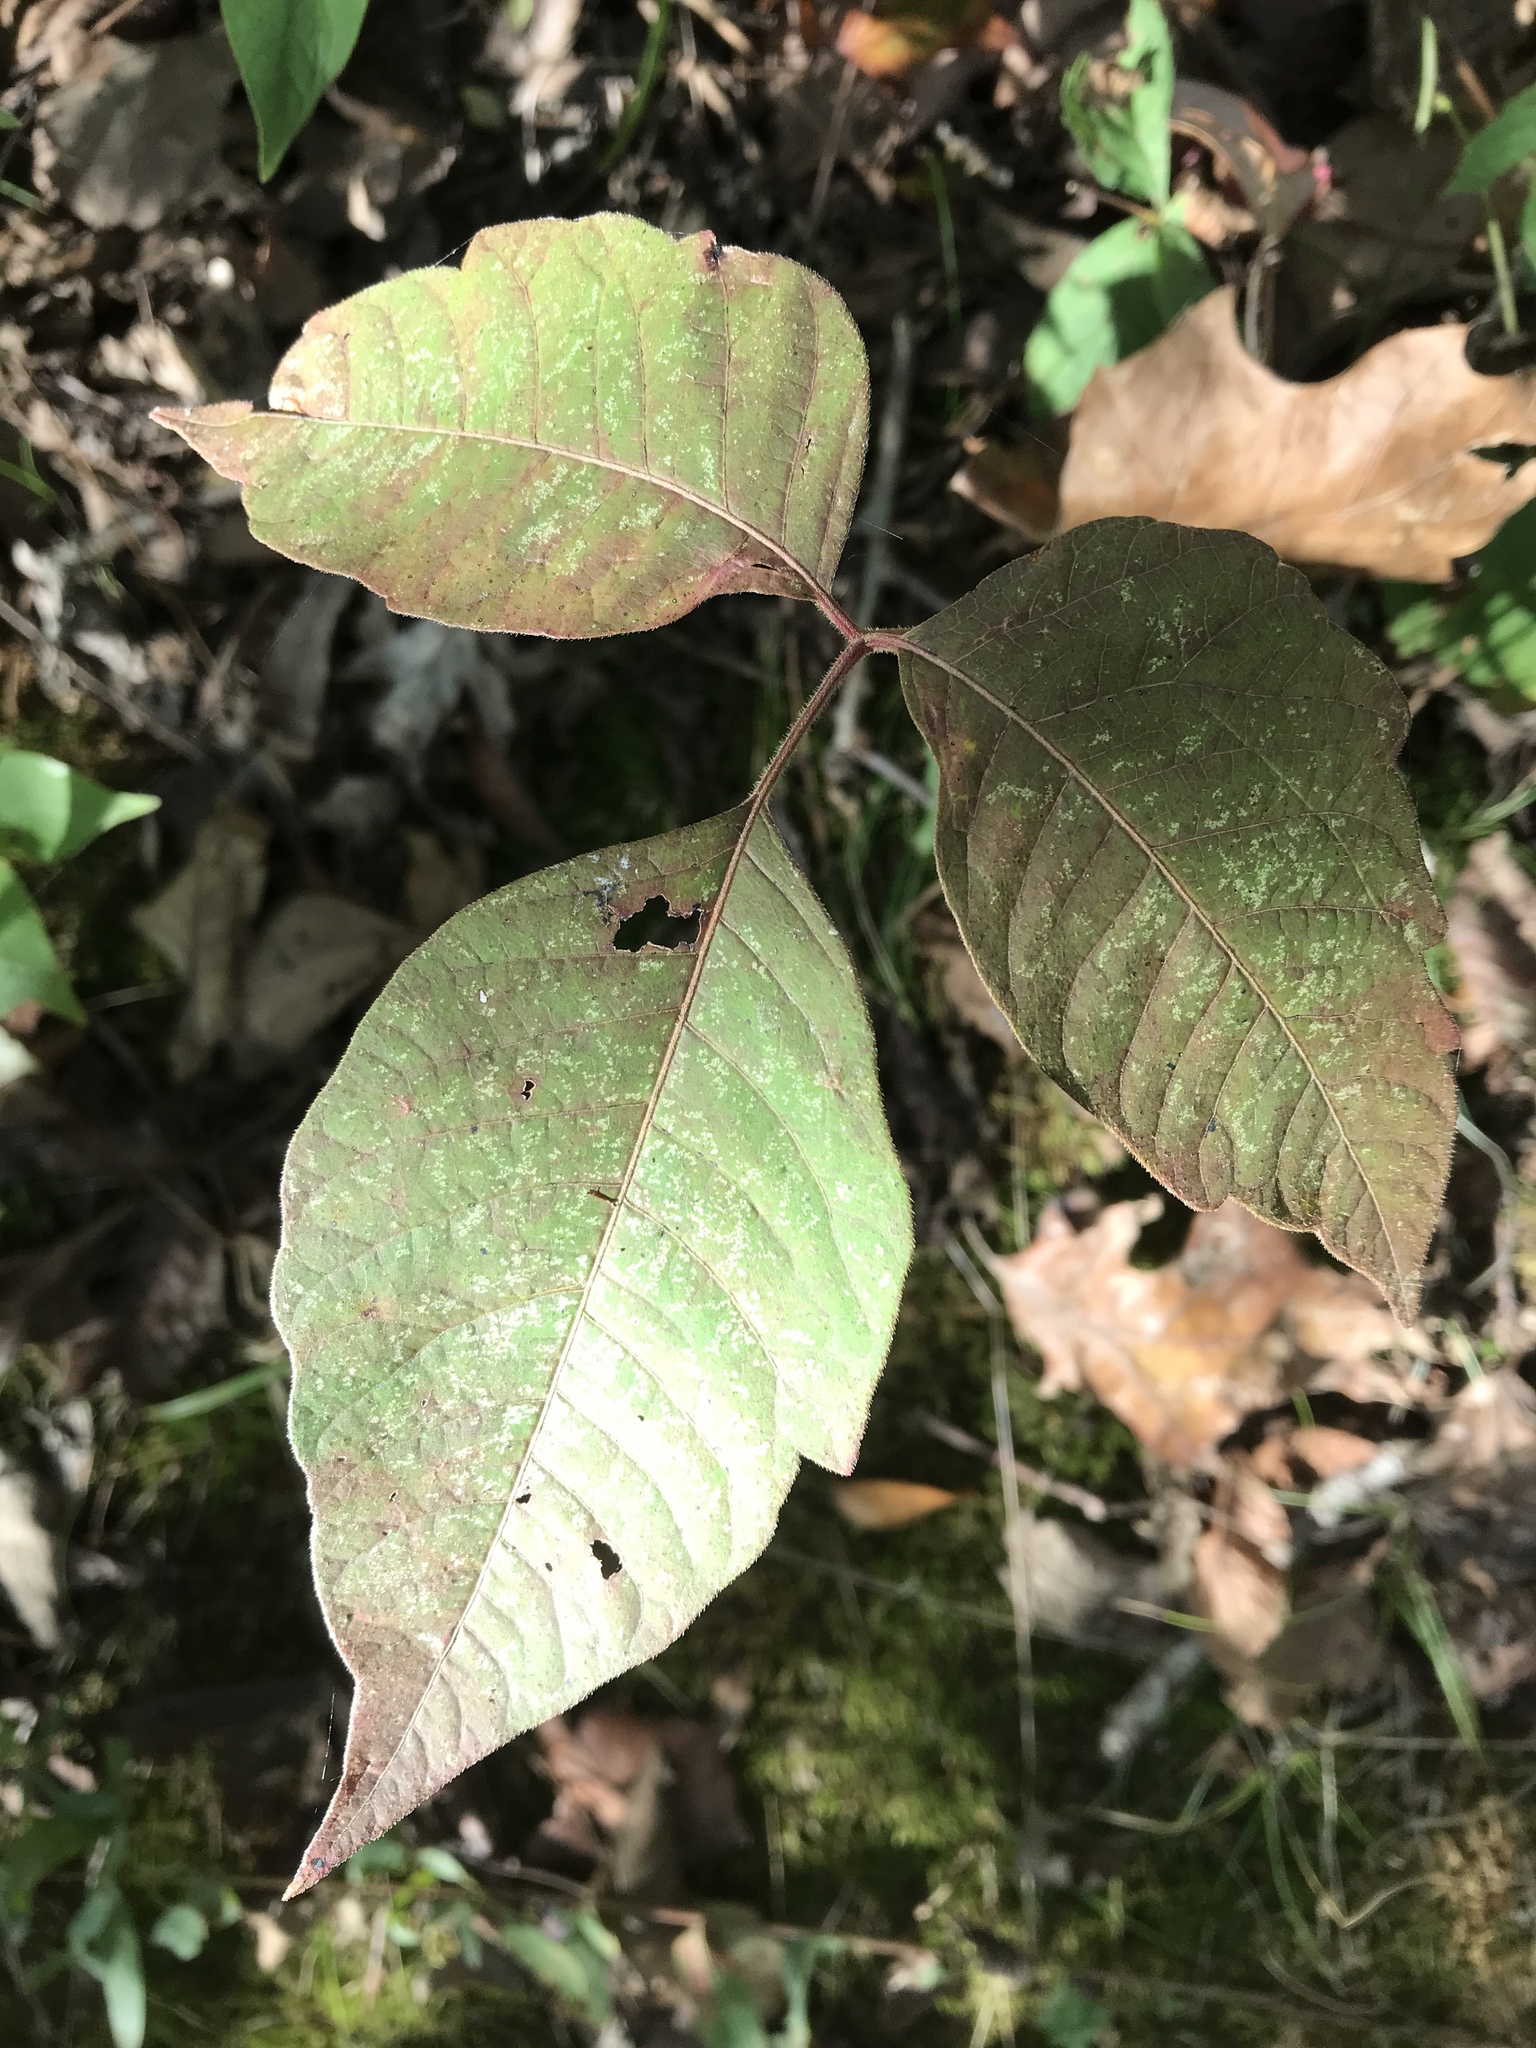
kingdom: Plantae
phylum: Tracheophyta
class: Magnoliopsida
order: Sapindales
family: Anacardiaceae
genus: Toxicodendron
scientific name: Toxicodendron radicans
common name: Poison ivy
